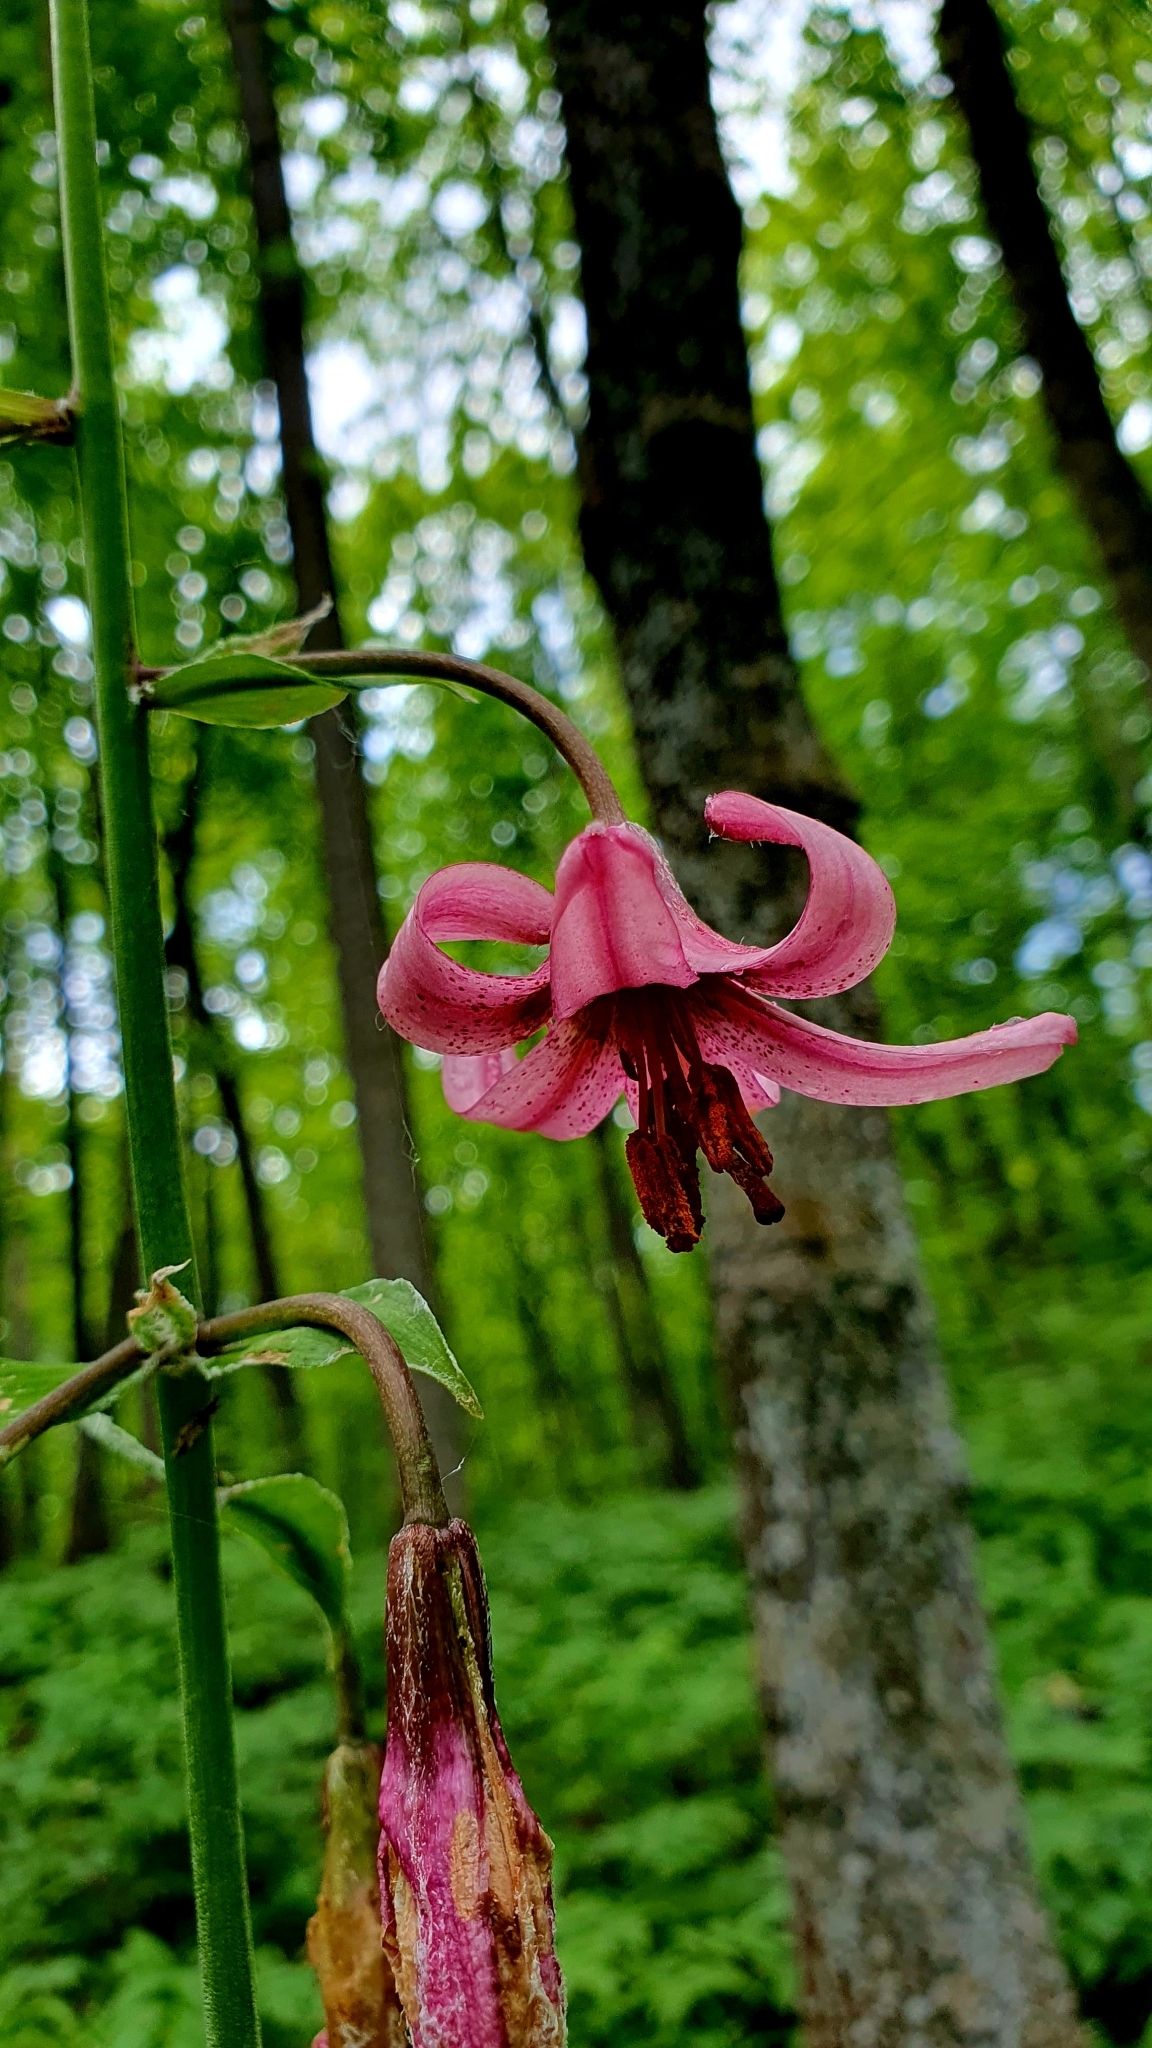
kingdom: Plantae
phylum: Tracheophyta
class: Liliopsida
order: Liliales
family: Liliaceae
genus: Lilium
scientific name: Lilium martagon
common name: Martagon lily
